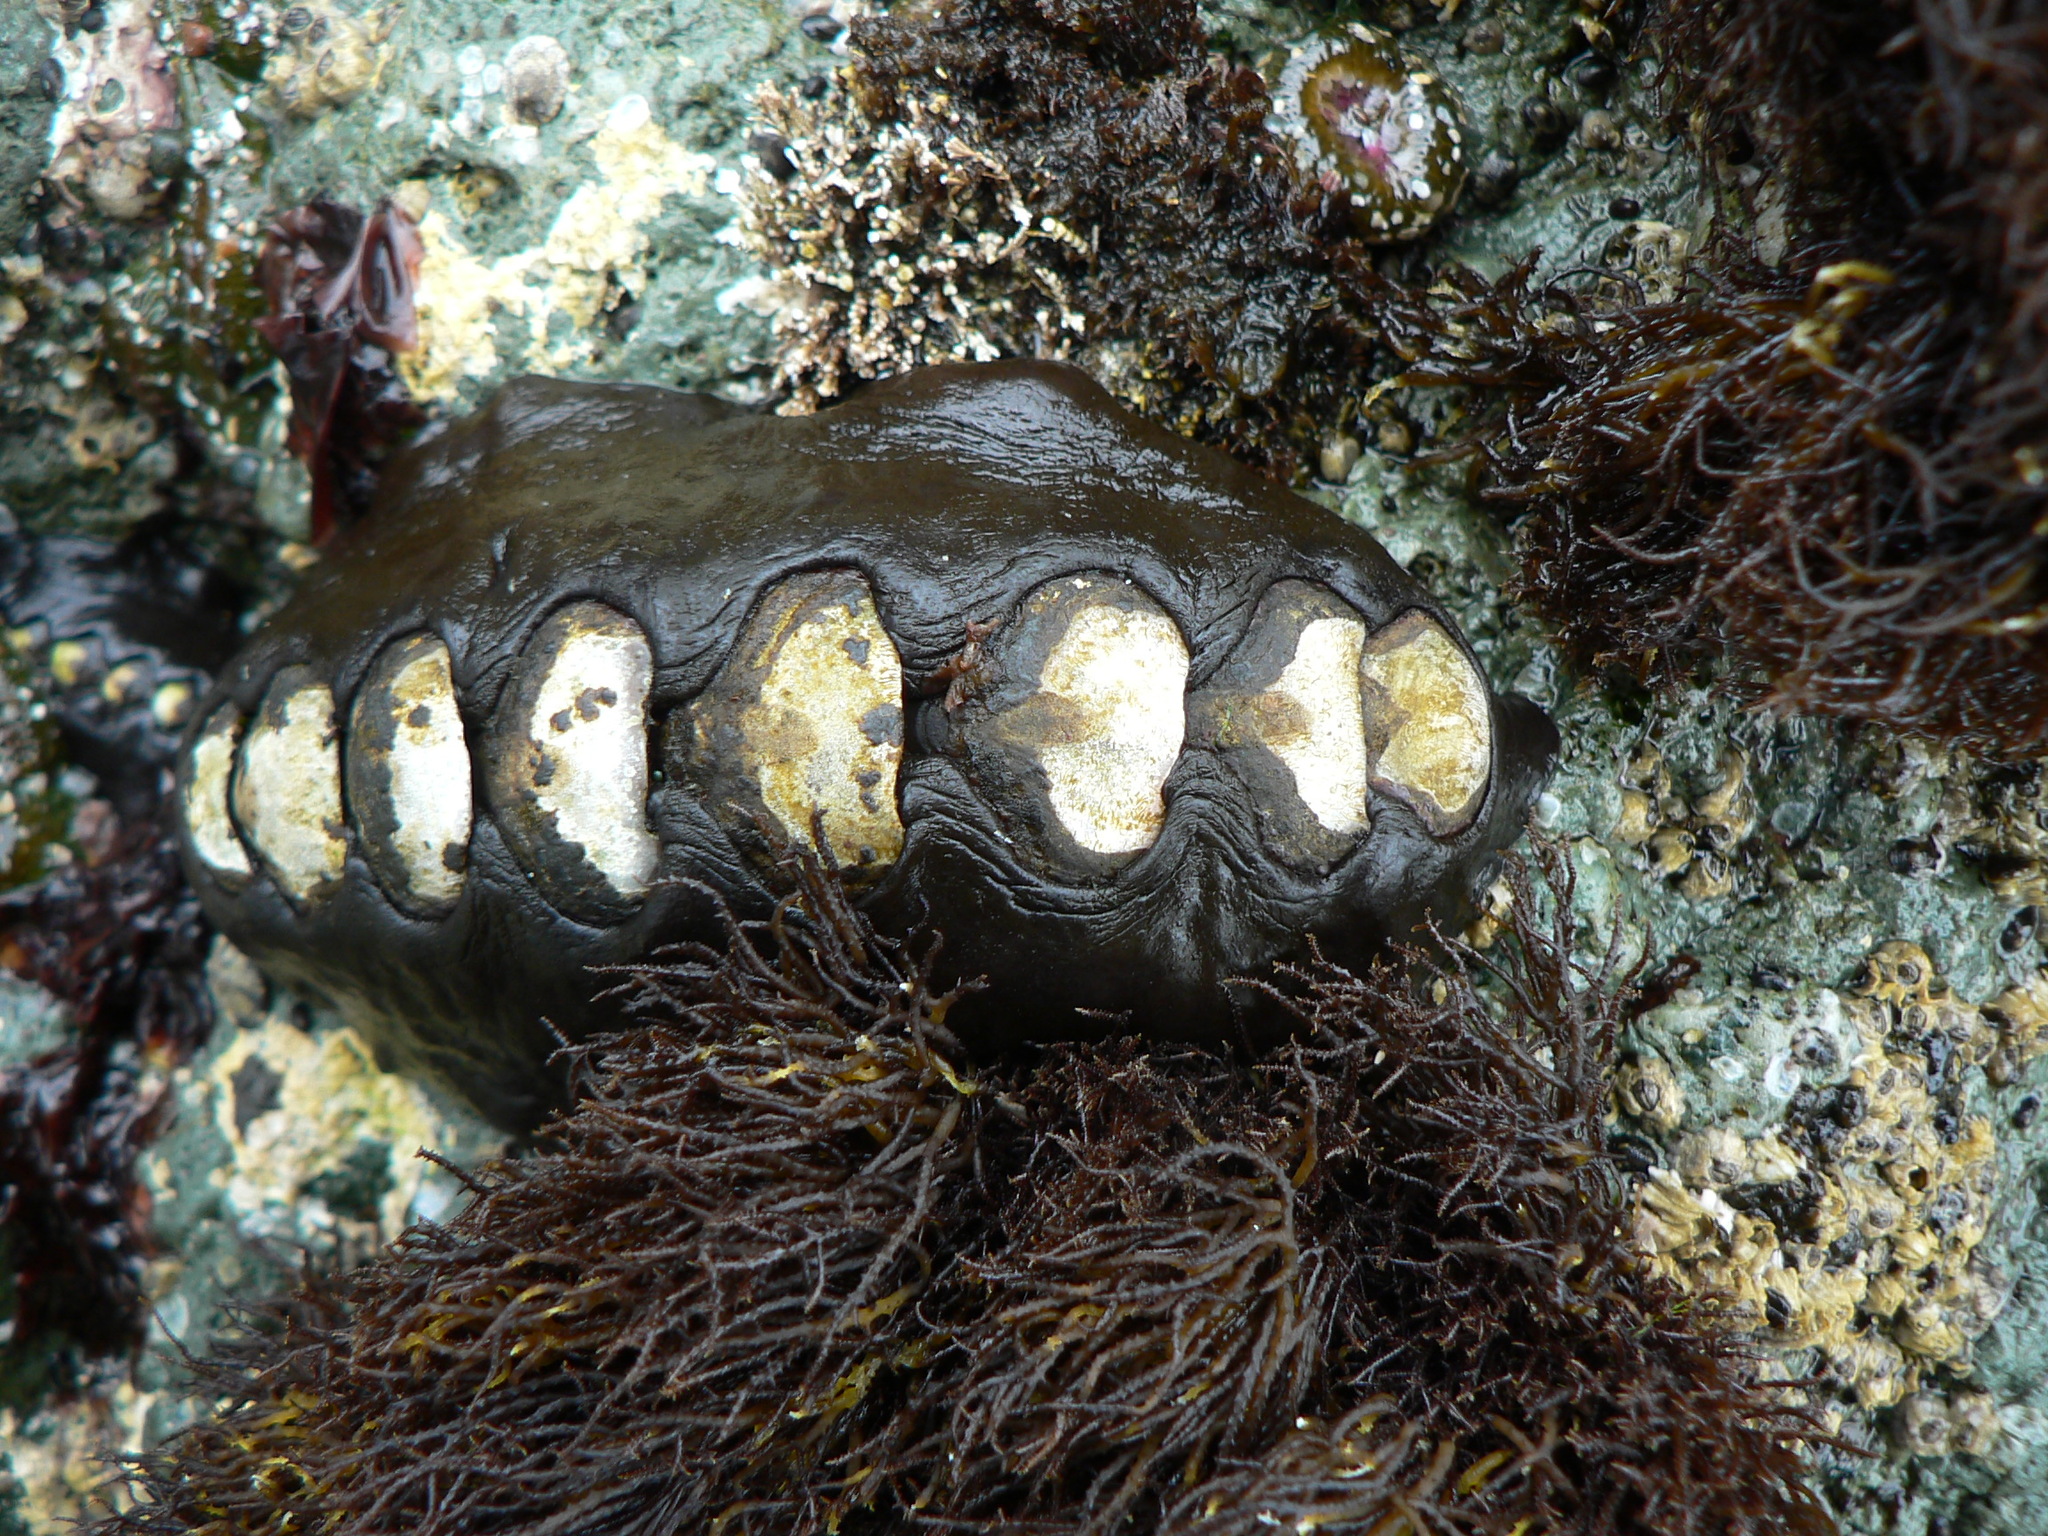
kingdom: Animalia
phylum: Mollusca
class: Polyplacophora
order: Chitonida
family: Mopaliidae
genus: Katharina
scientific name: Katharina tunicata
